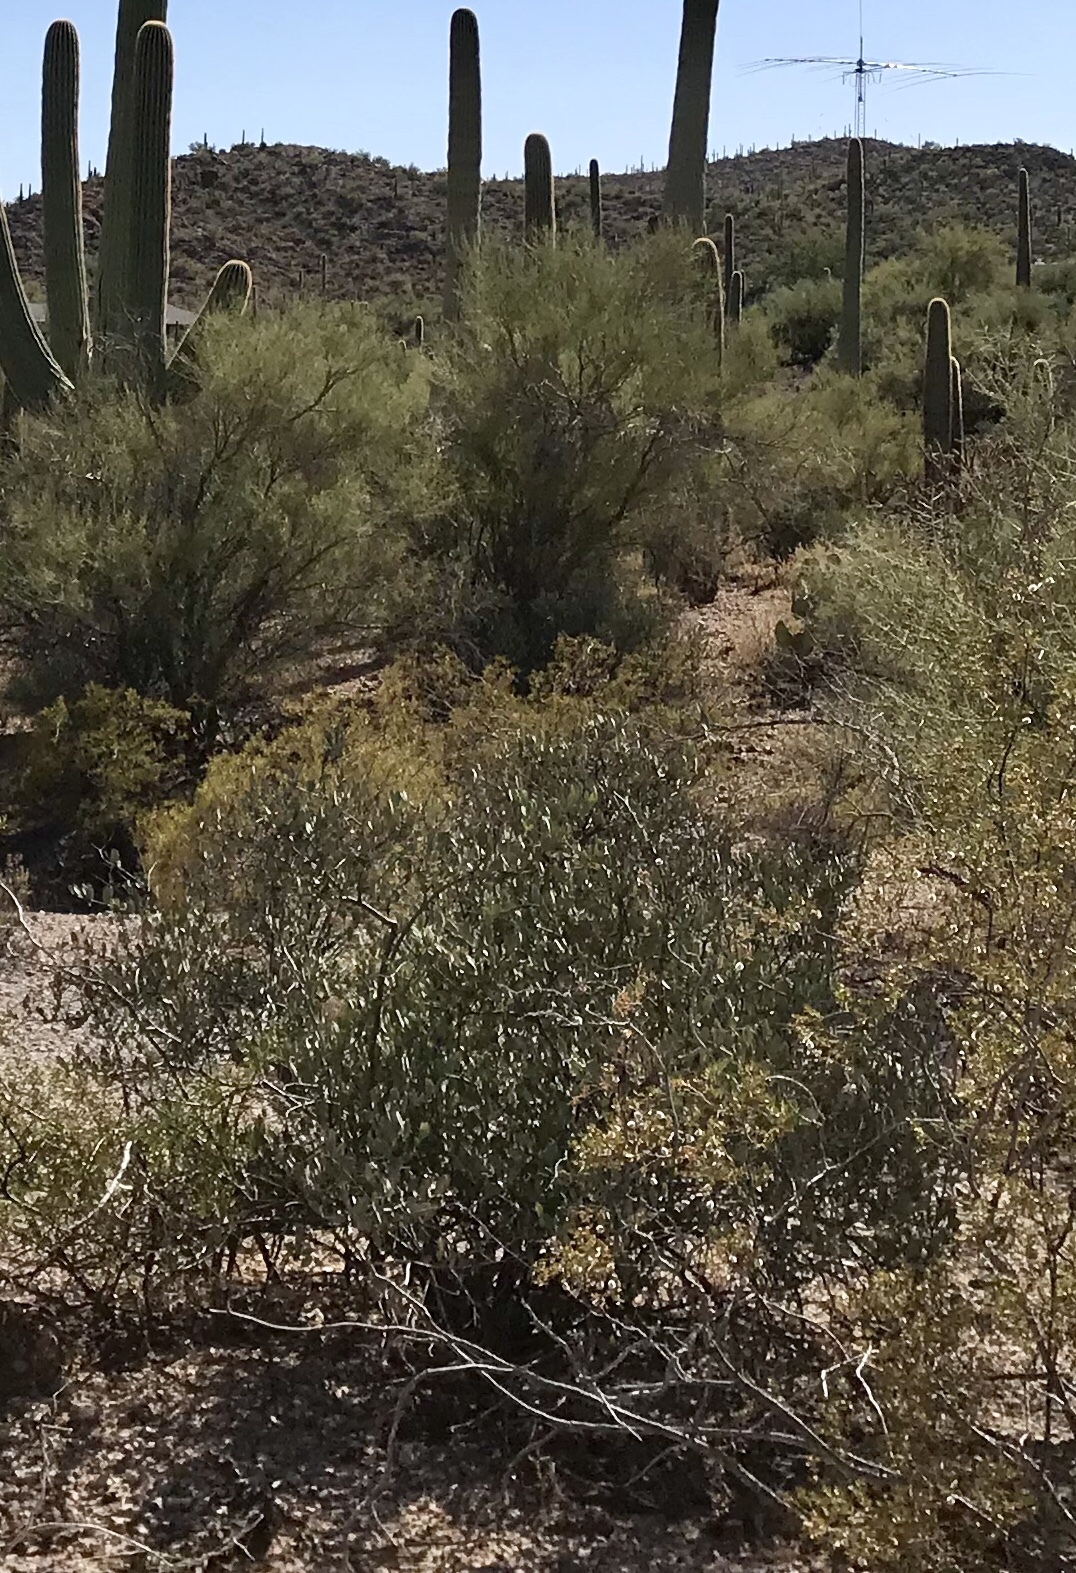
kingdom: Plantae
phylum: Tracheophyta
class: Magnoliopsida
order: Caryophyllales
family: Simmondsiaceae
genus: Simmondsia
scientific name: Simmondsia chinensis
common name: Jojoba
